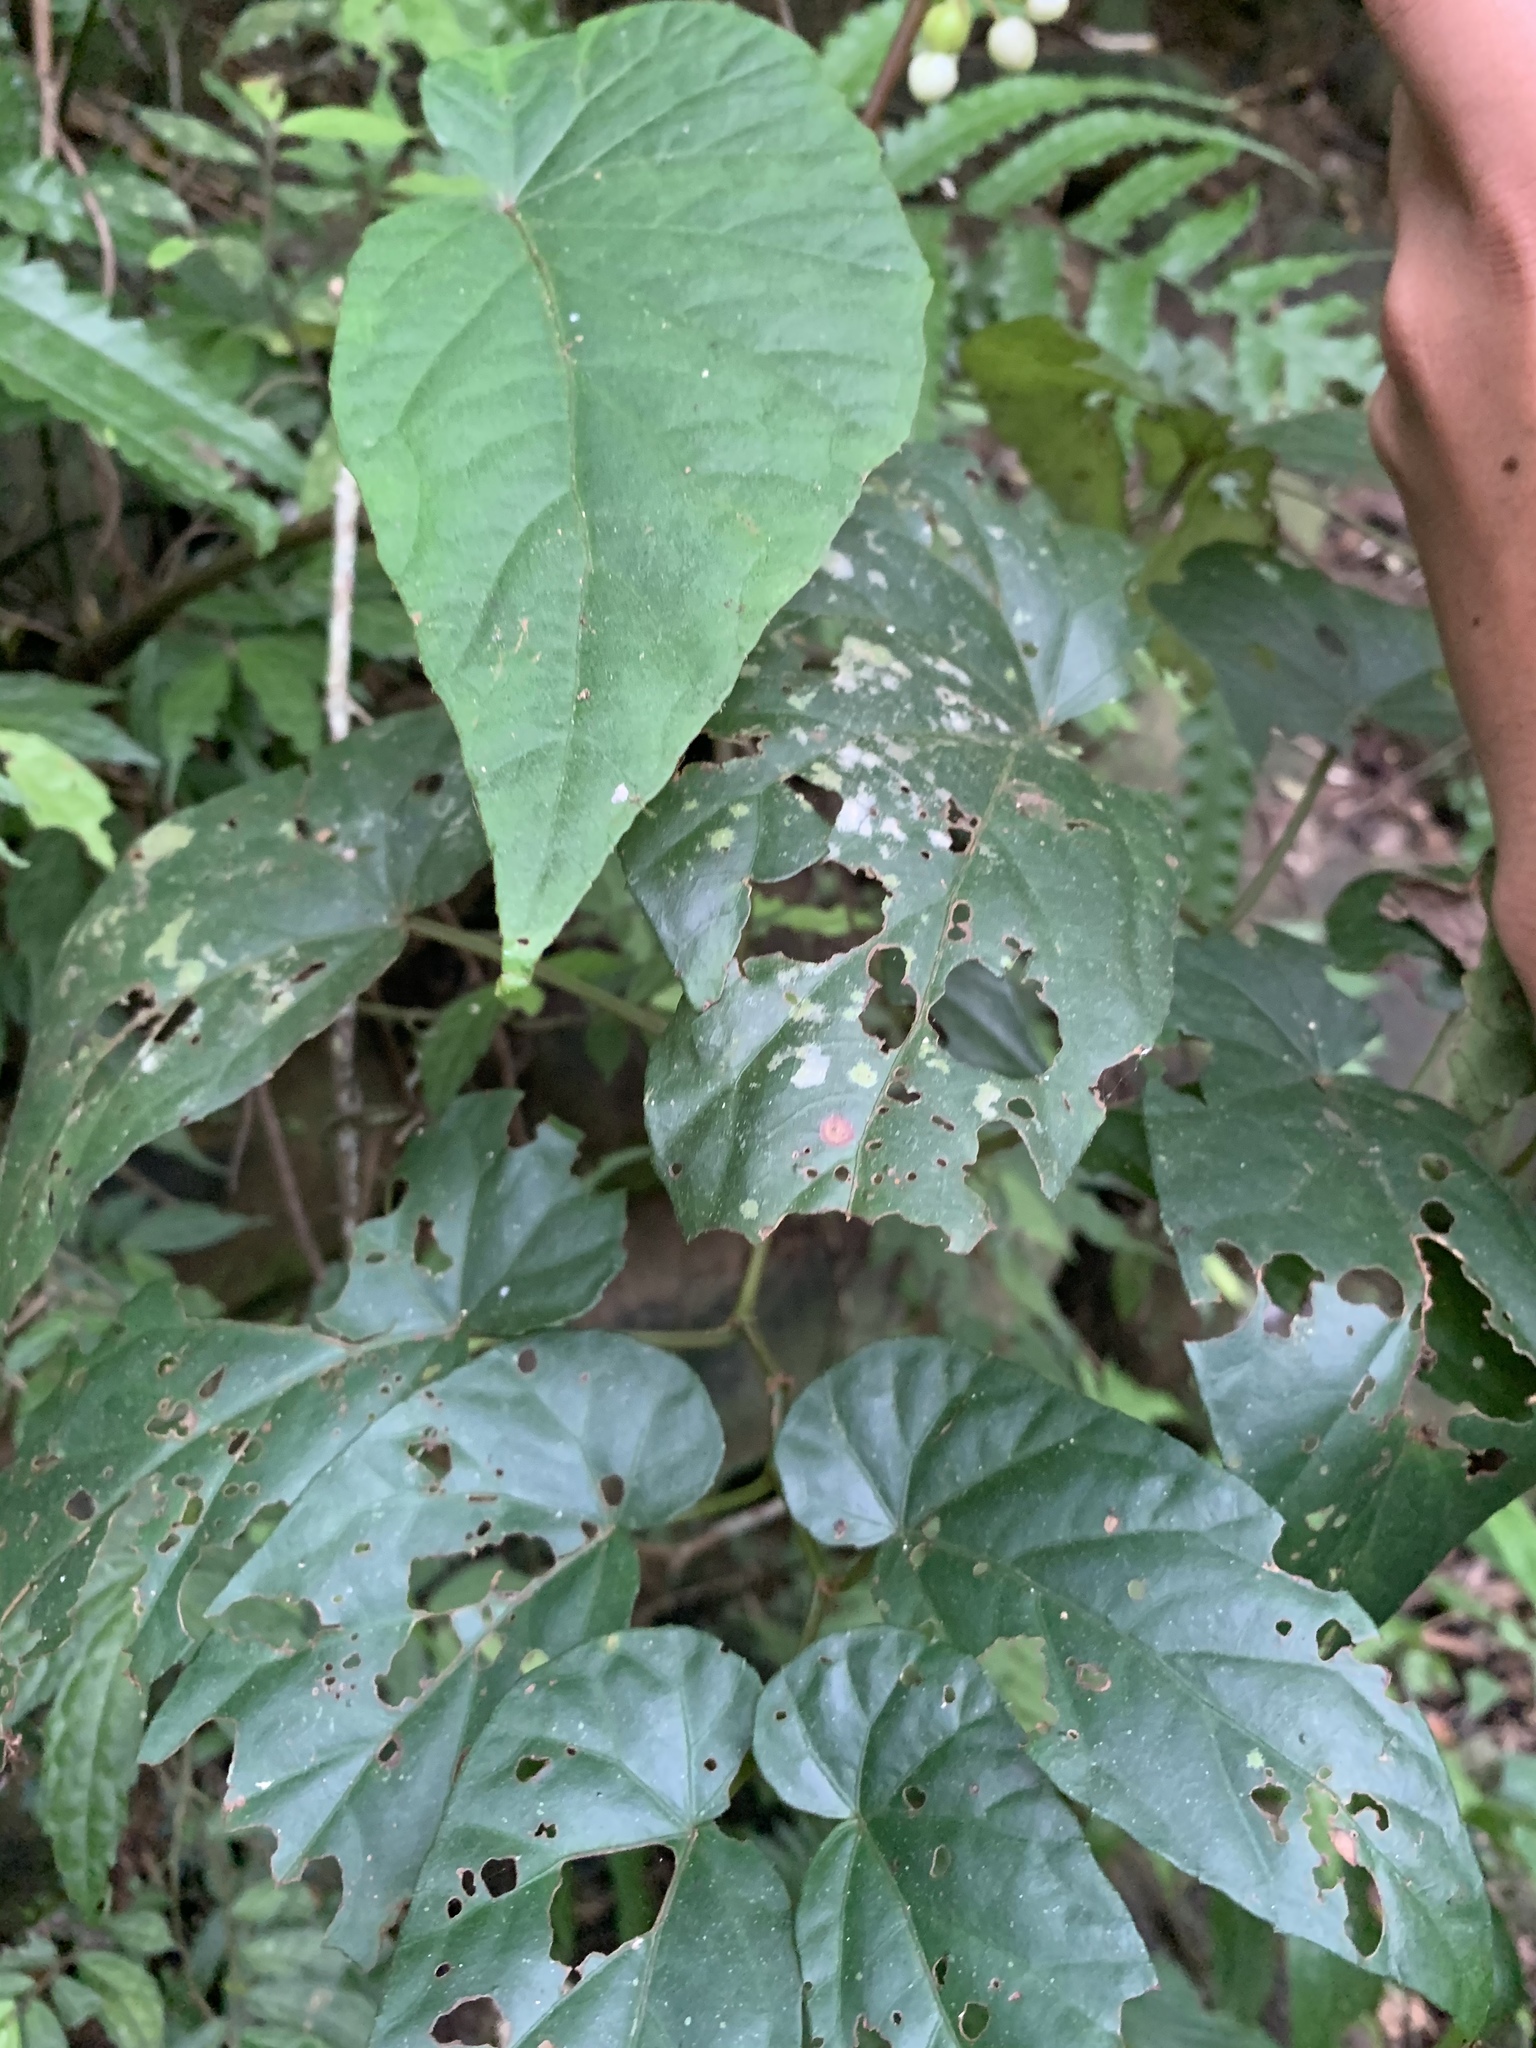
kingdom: Plantae
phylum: Tracheophyta
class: Magnoliopsida
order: Cucurbitales
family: Begoniaceae
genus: Begonia
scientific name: Begonia longifolia
